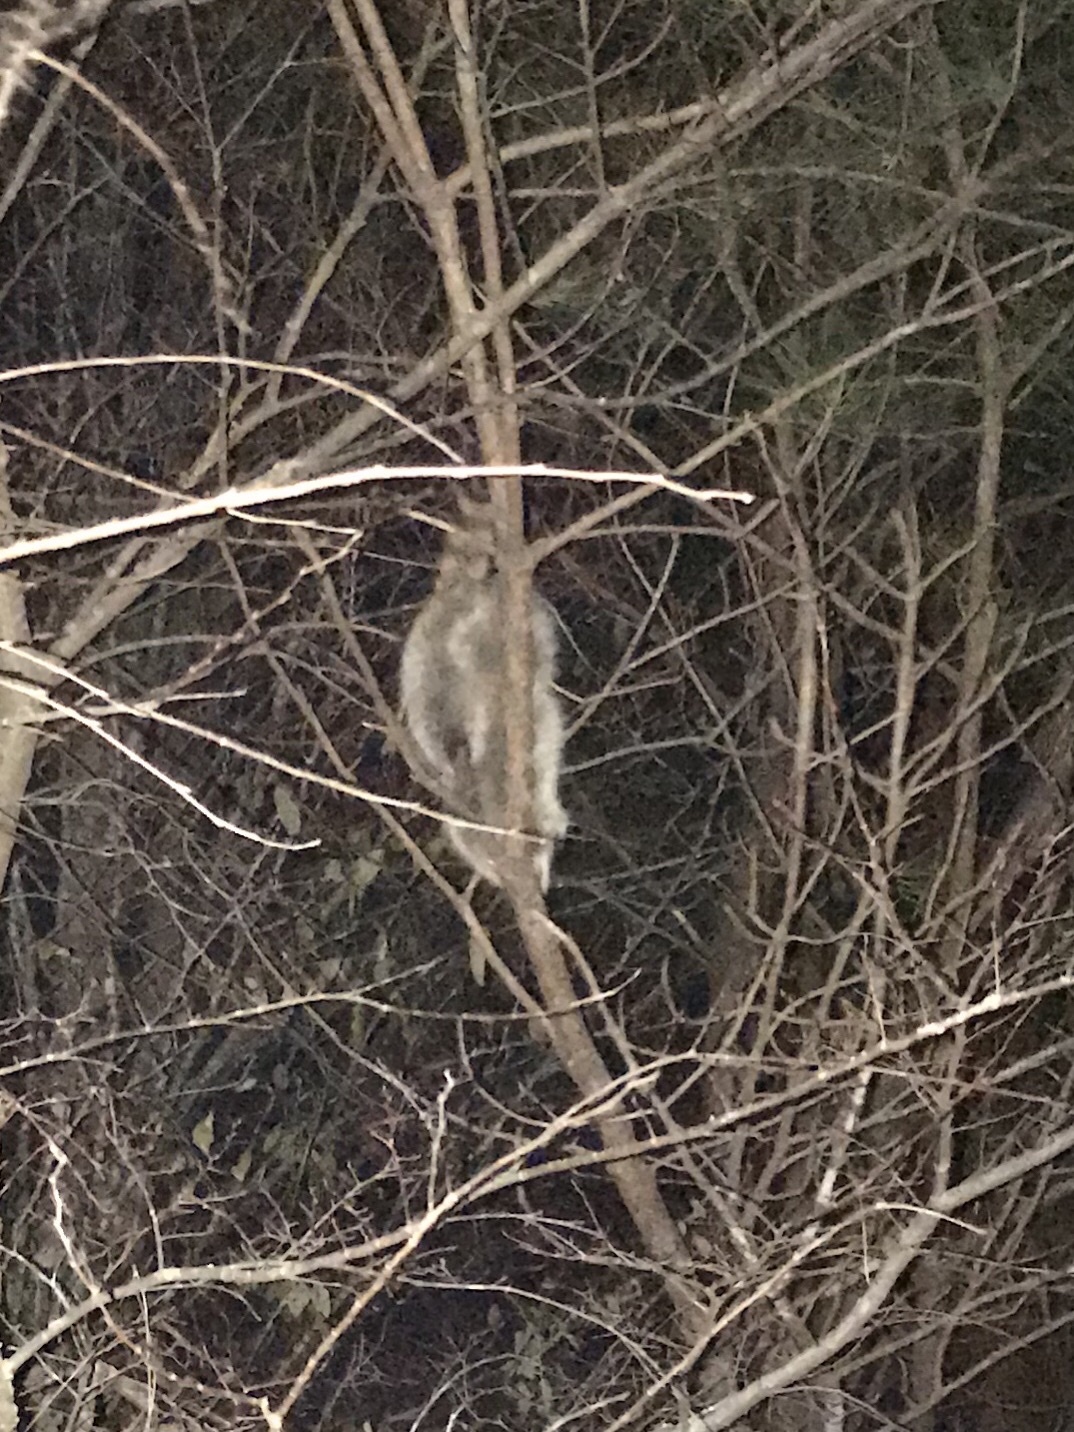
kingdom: Animalia
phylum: Chordata
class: Mammalia
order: Carnivora
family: Procyonidae
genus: Procyon
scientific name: Procyon lotor
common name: Raccoon
